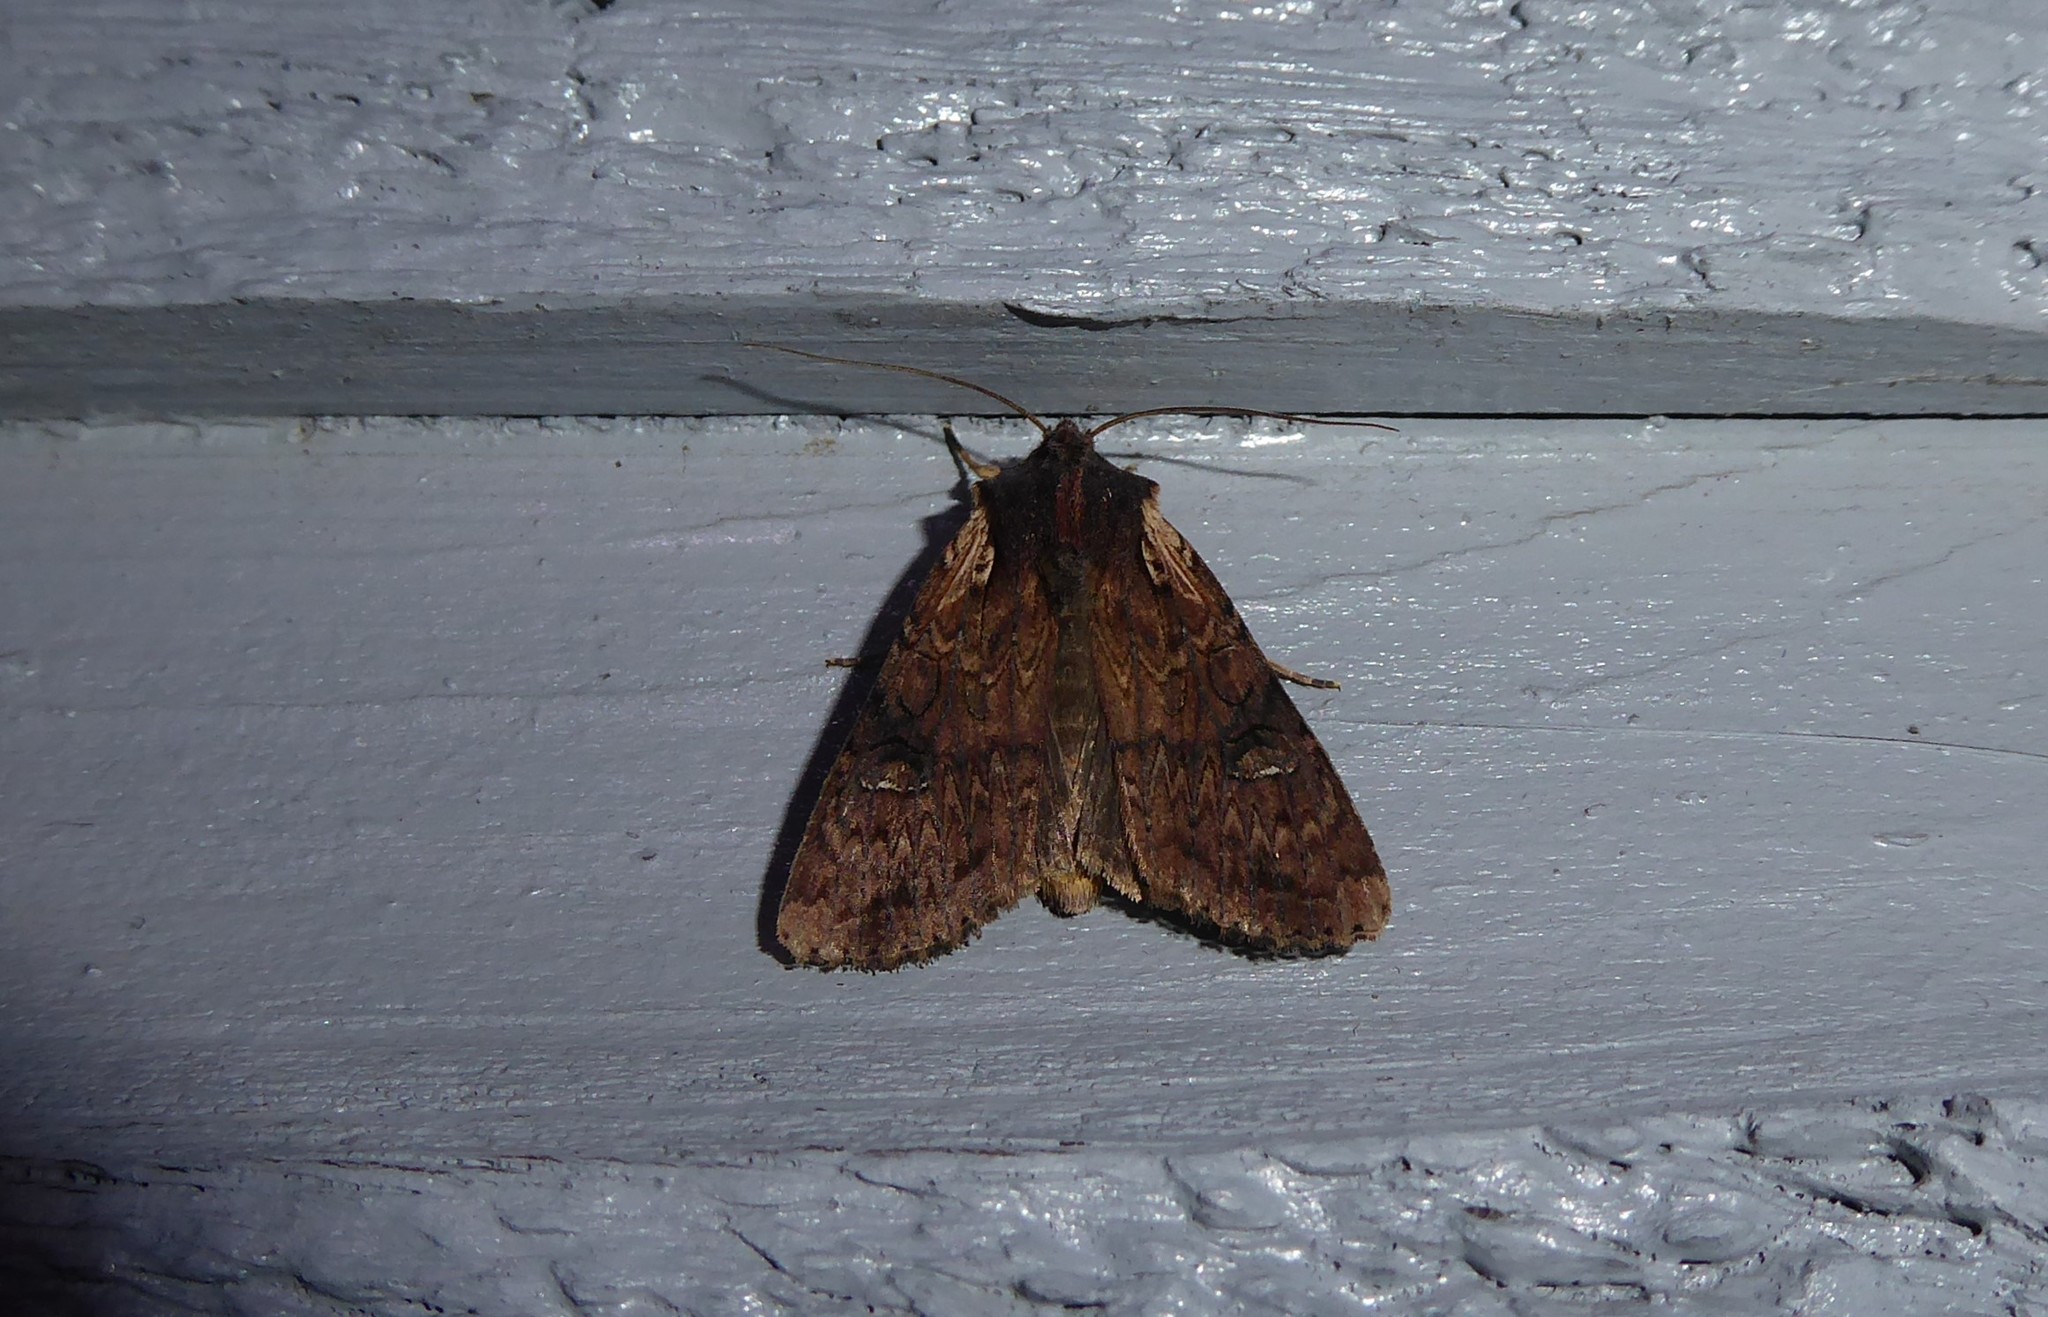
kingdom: Animalia
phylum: Arthropoda
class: Insecta
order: Lepidoptera
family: Noctuidae
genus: Ichneutica
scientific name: Ichneutica omoplaca
